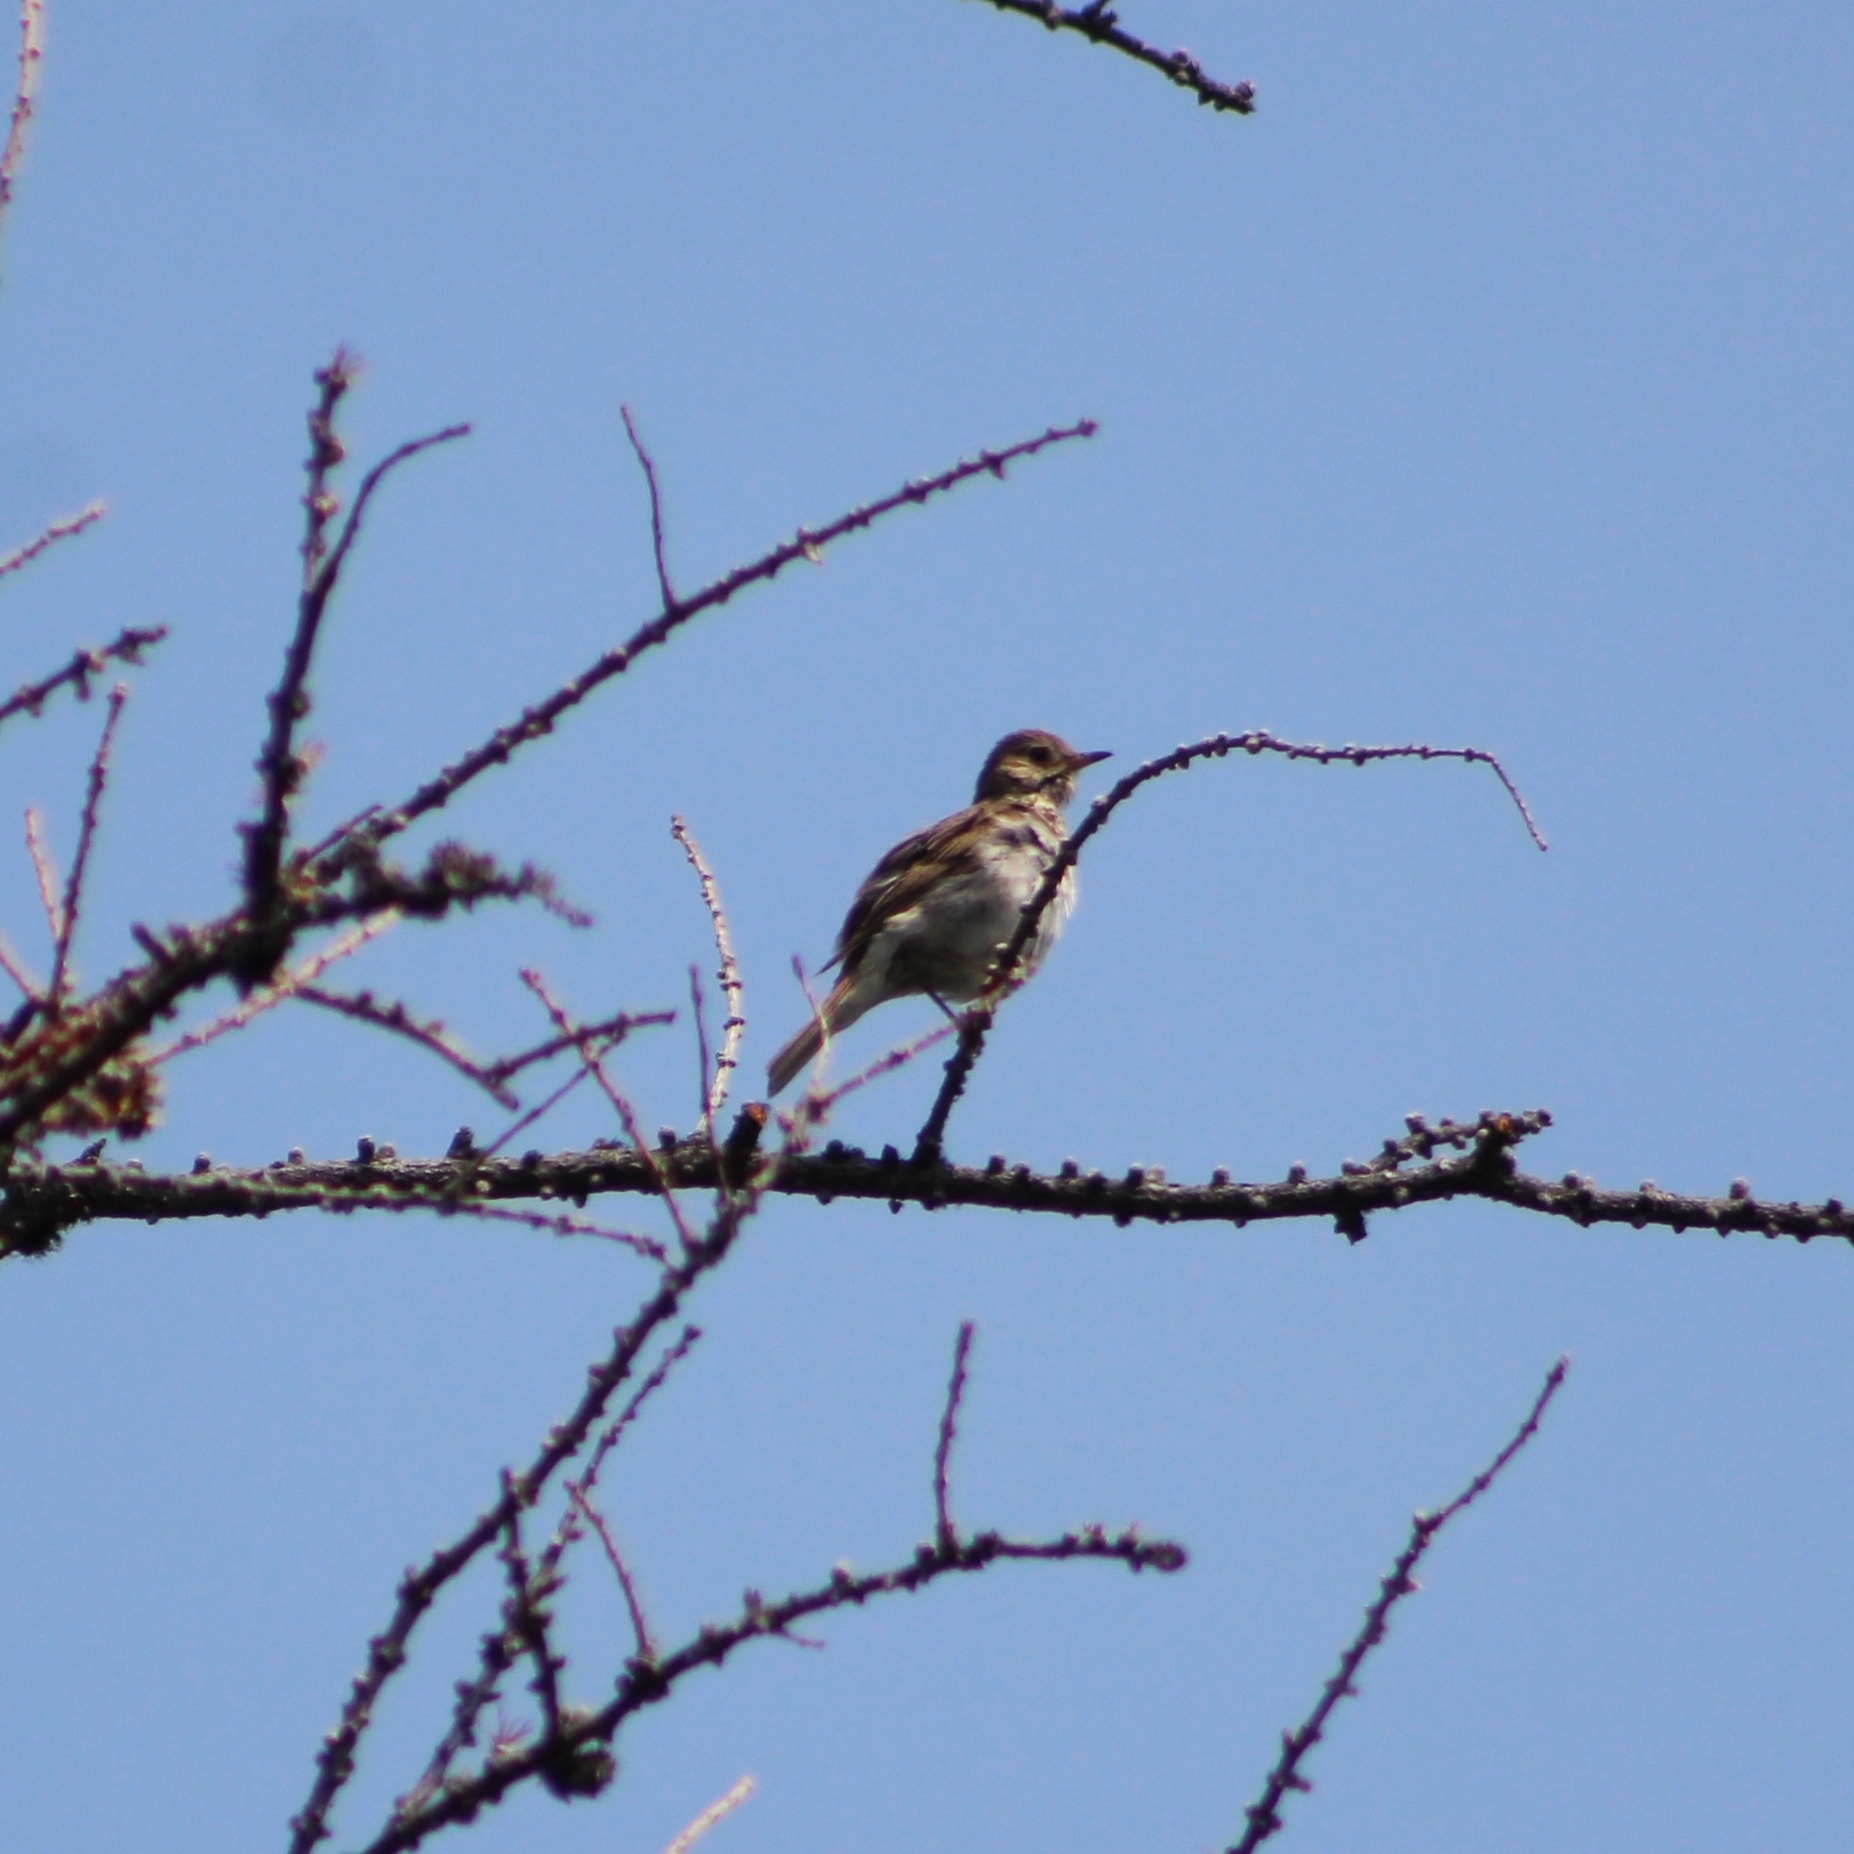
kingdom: Animalia
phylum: Chordata
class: Aves
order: Passeriformes
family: Turdidae
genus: Catharus
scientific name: Catharus fuscescens
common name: Veery
